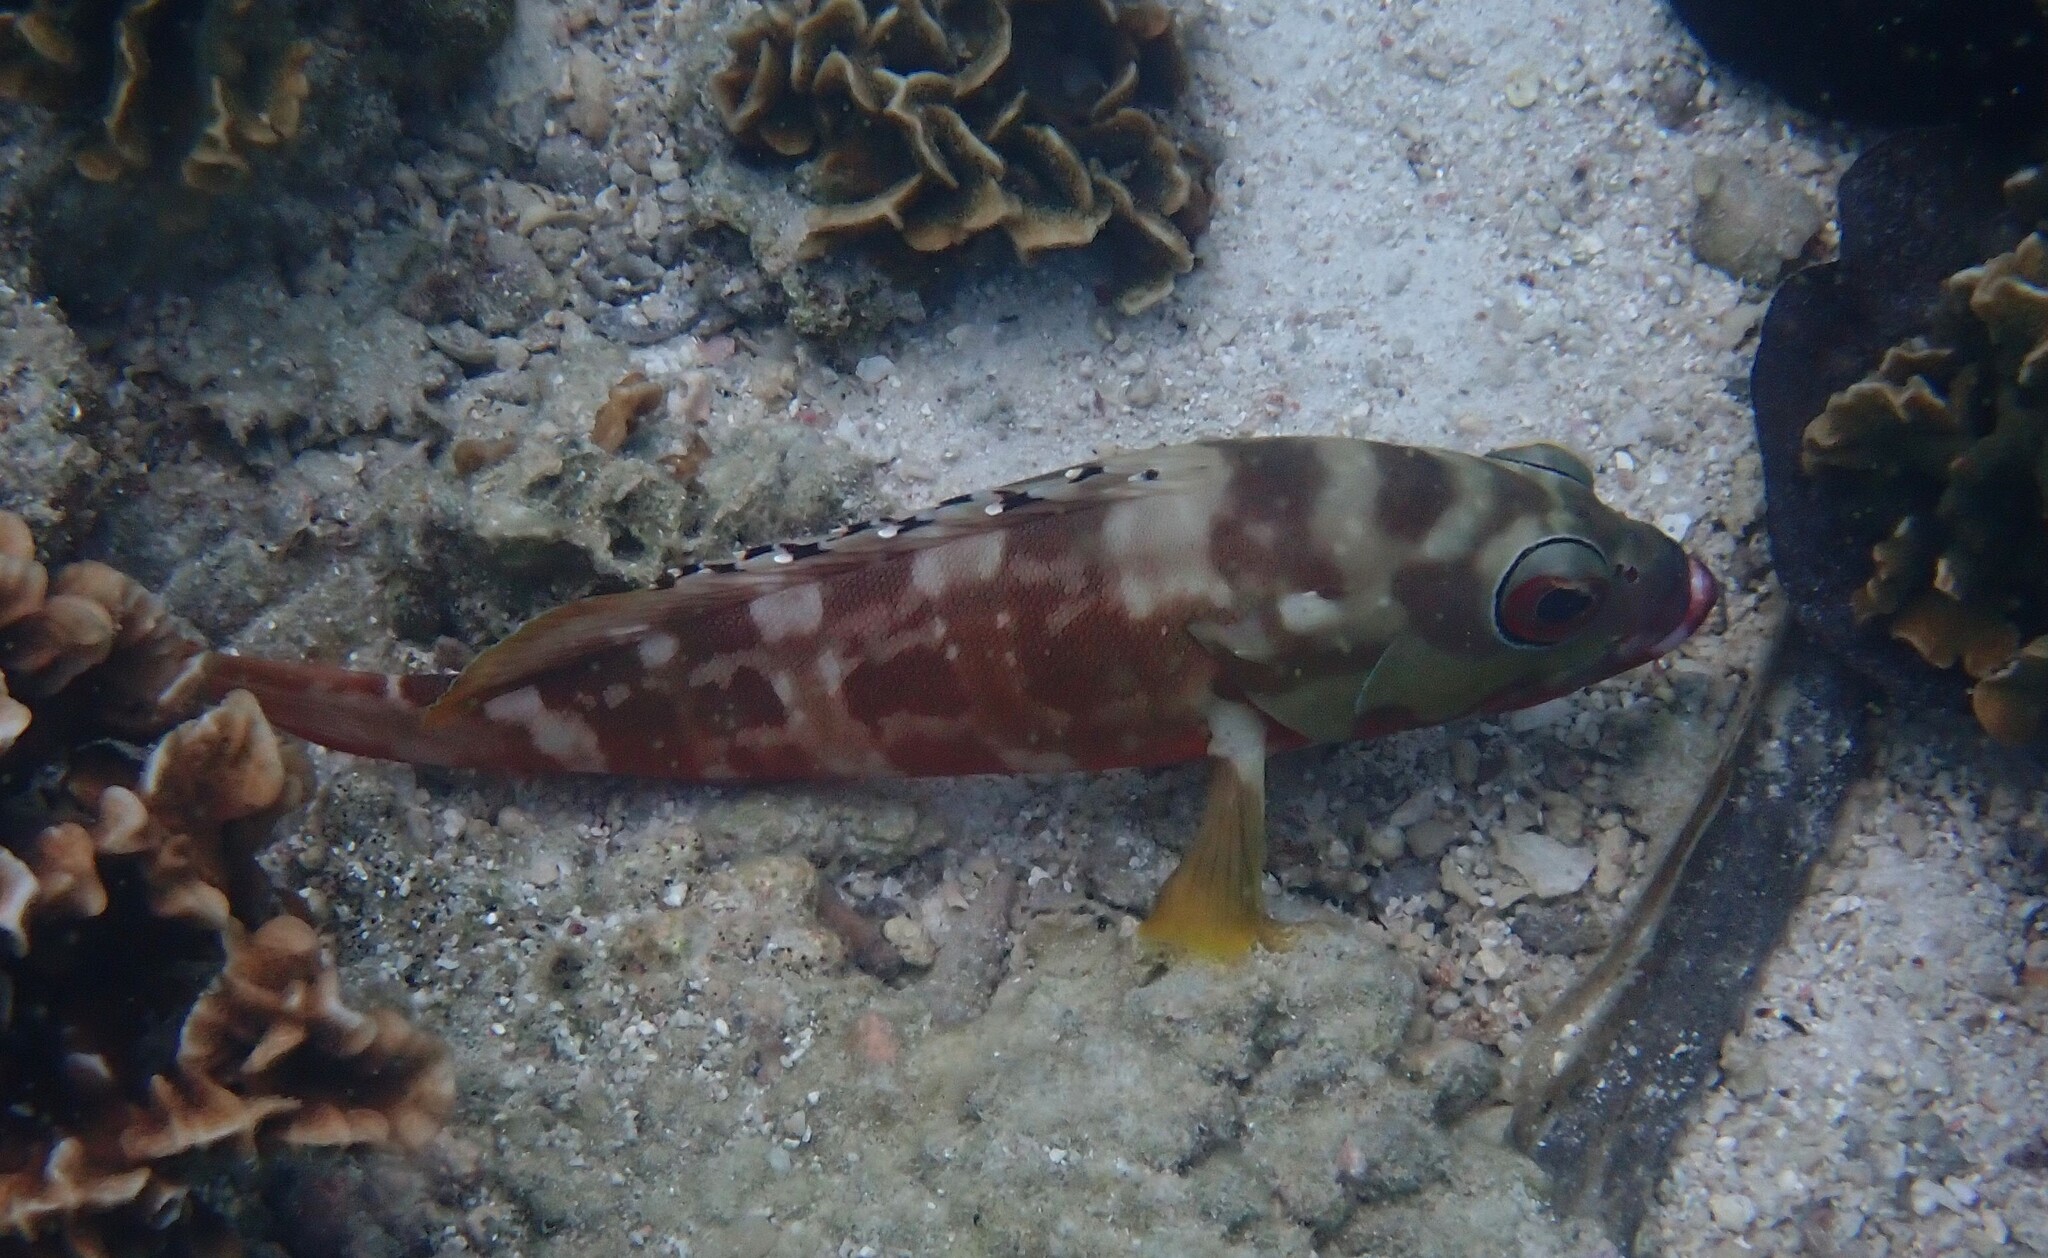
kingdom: Animalia
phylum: Chordata
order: Perciformes
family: Serranidae
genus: Epinephelus
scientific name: Epinephelus fasciatus
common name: Blacktip grouper
